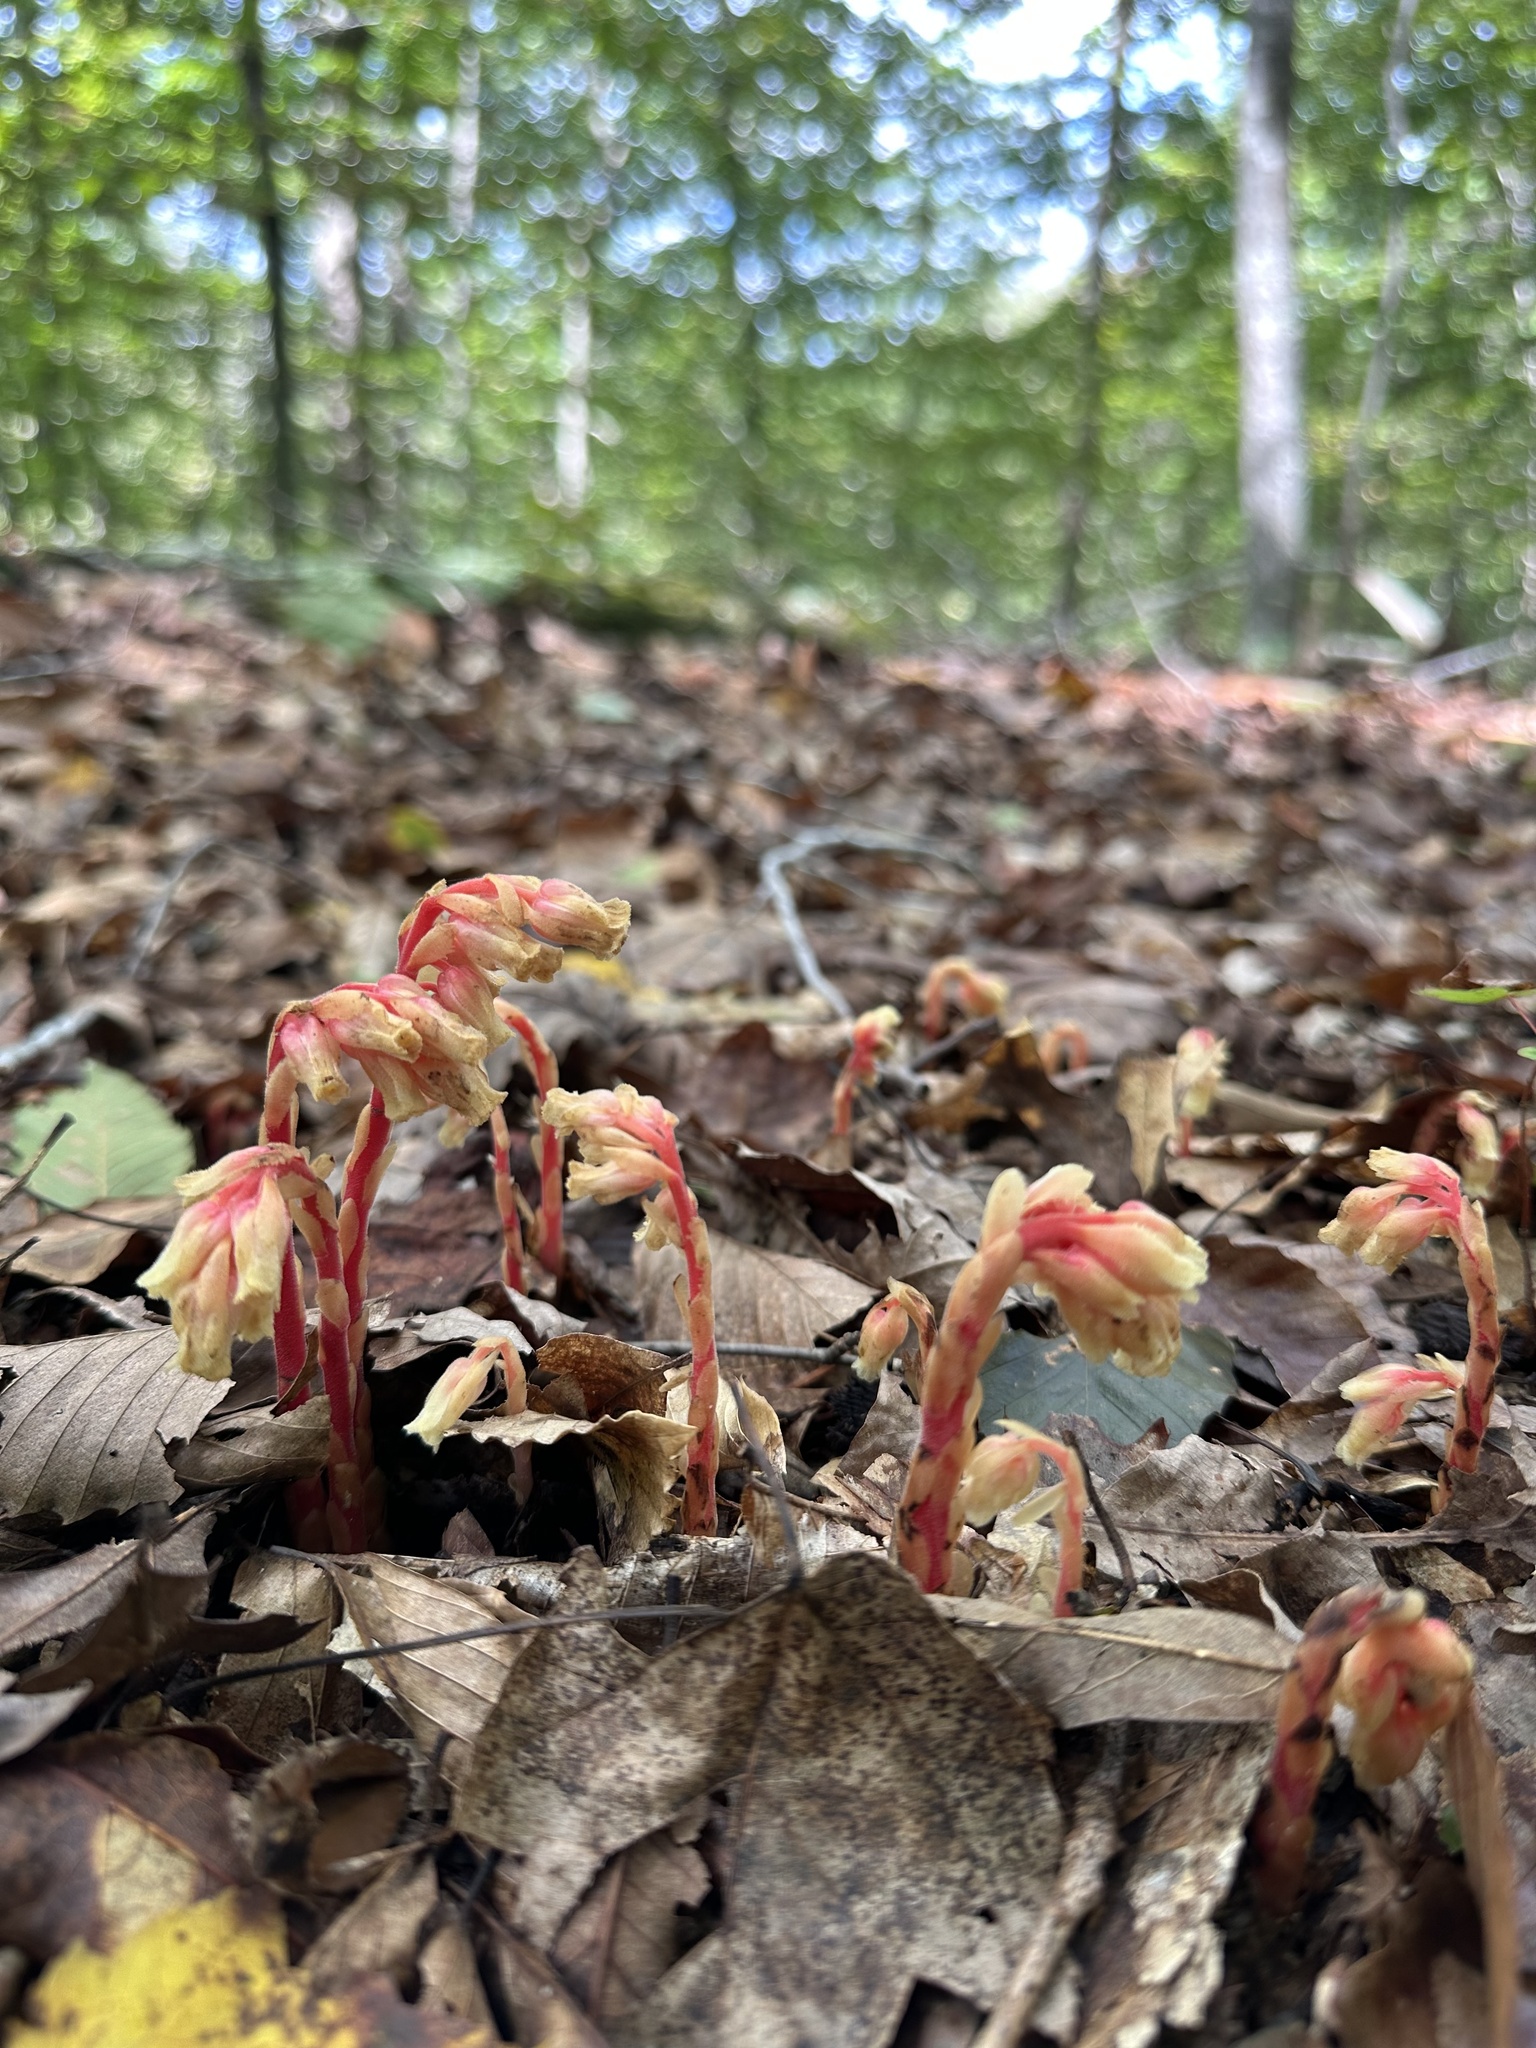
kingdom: Plantae
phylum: Tracheophyta
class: Magnoliopsida
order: Ericales
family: Ericaceae
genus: Hypopitys
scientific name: Hypopitys monotropa
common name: Yellow bird's-nest
